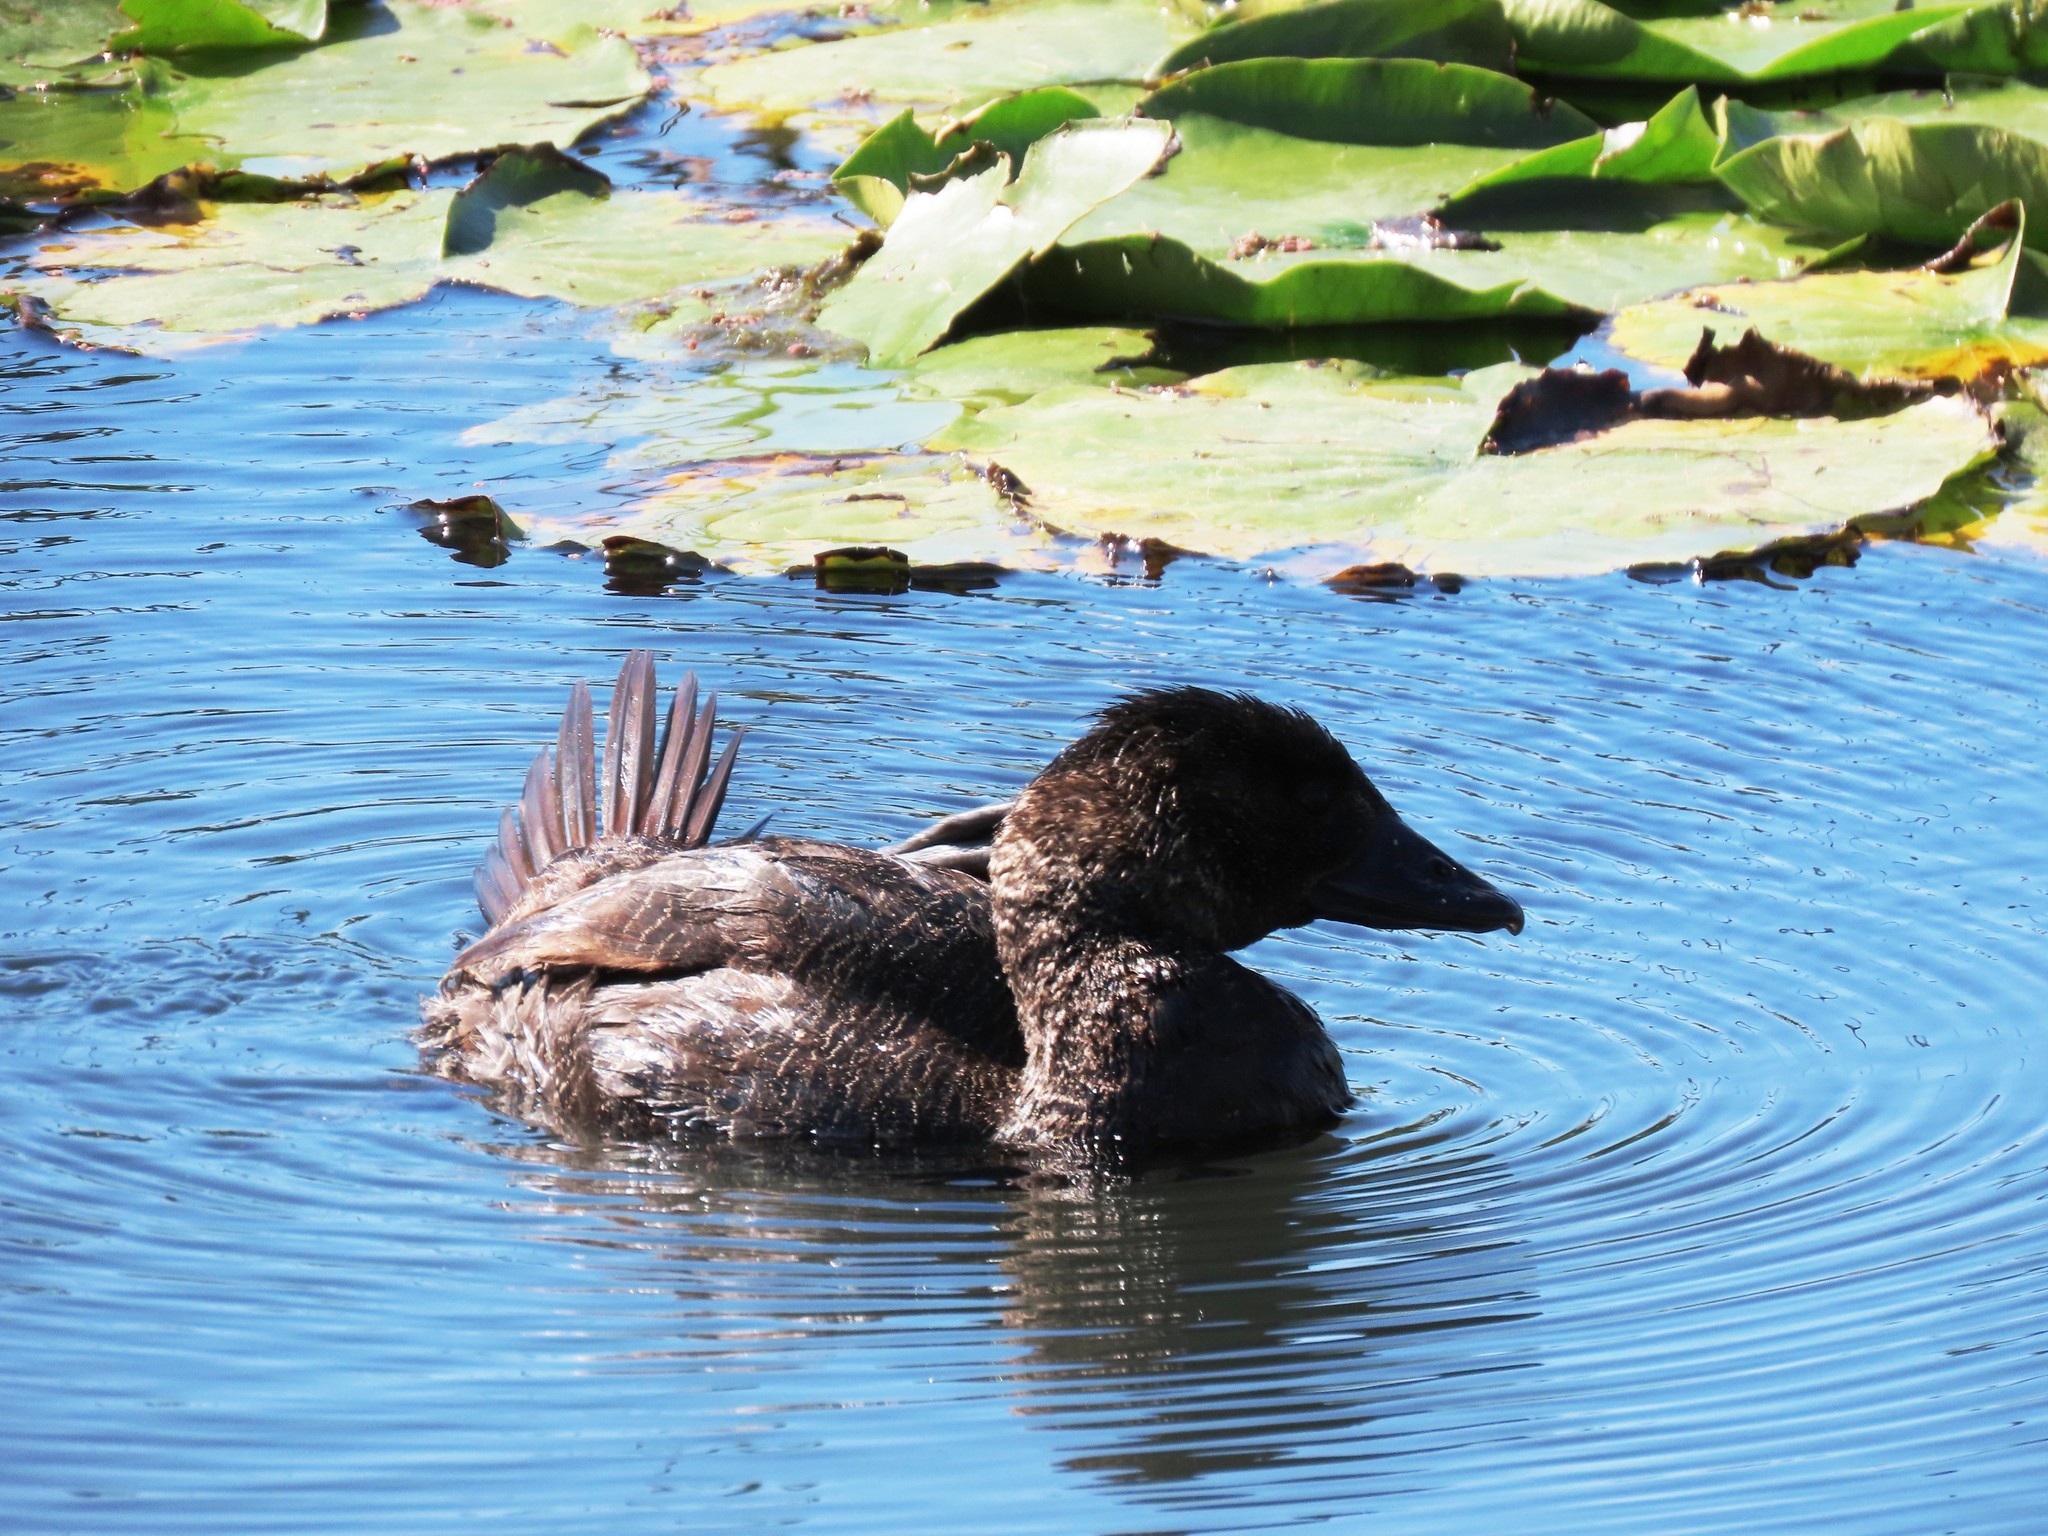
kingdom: Animalia
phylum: Chordata
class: Aves
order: Anseriformes
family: Anatidae
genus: Biziura
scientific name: Biziura lobata
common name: Musk duck
